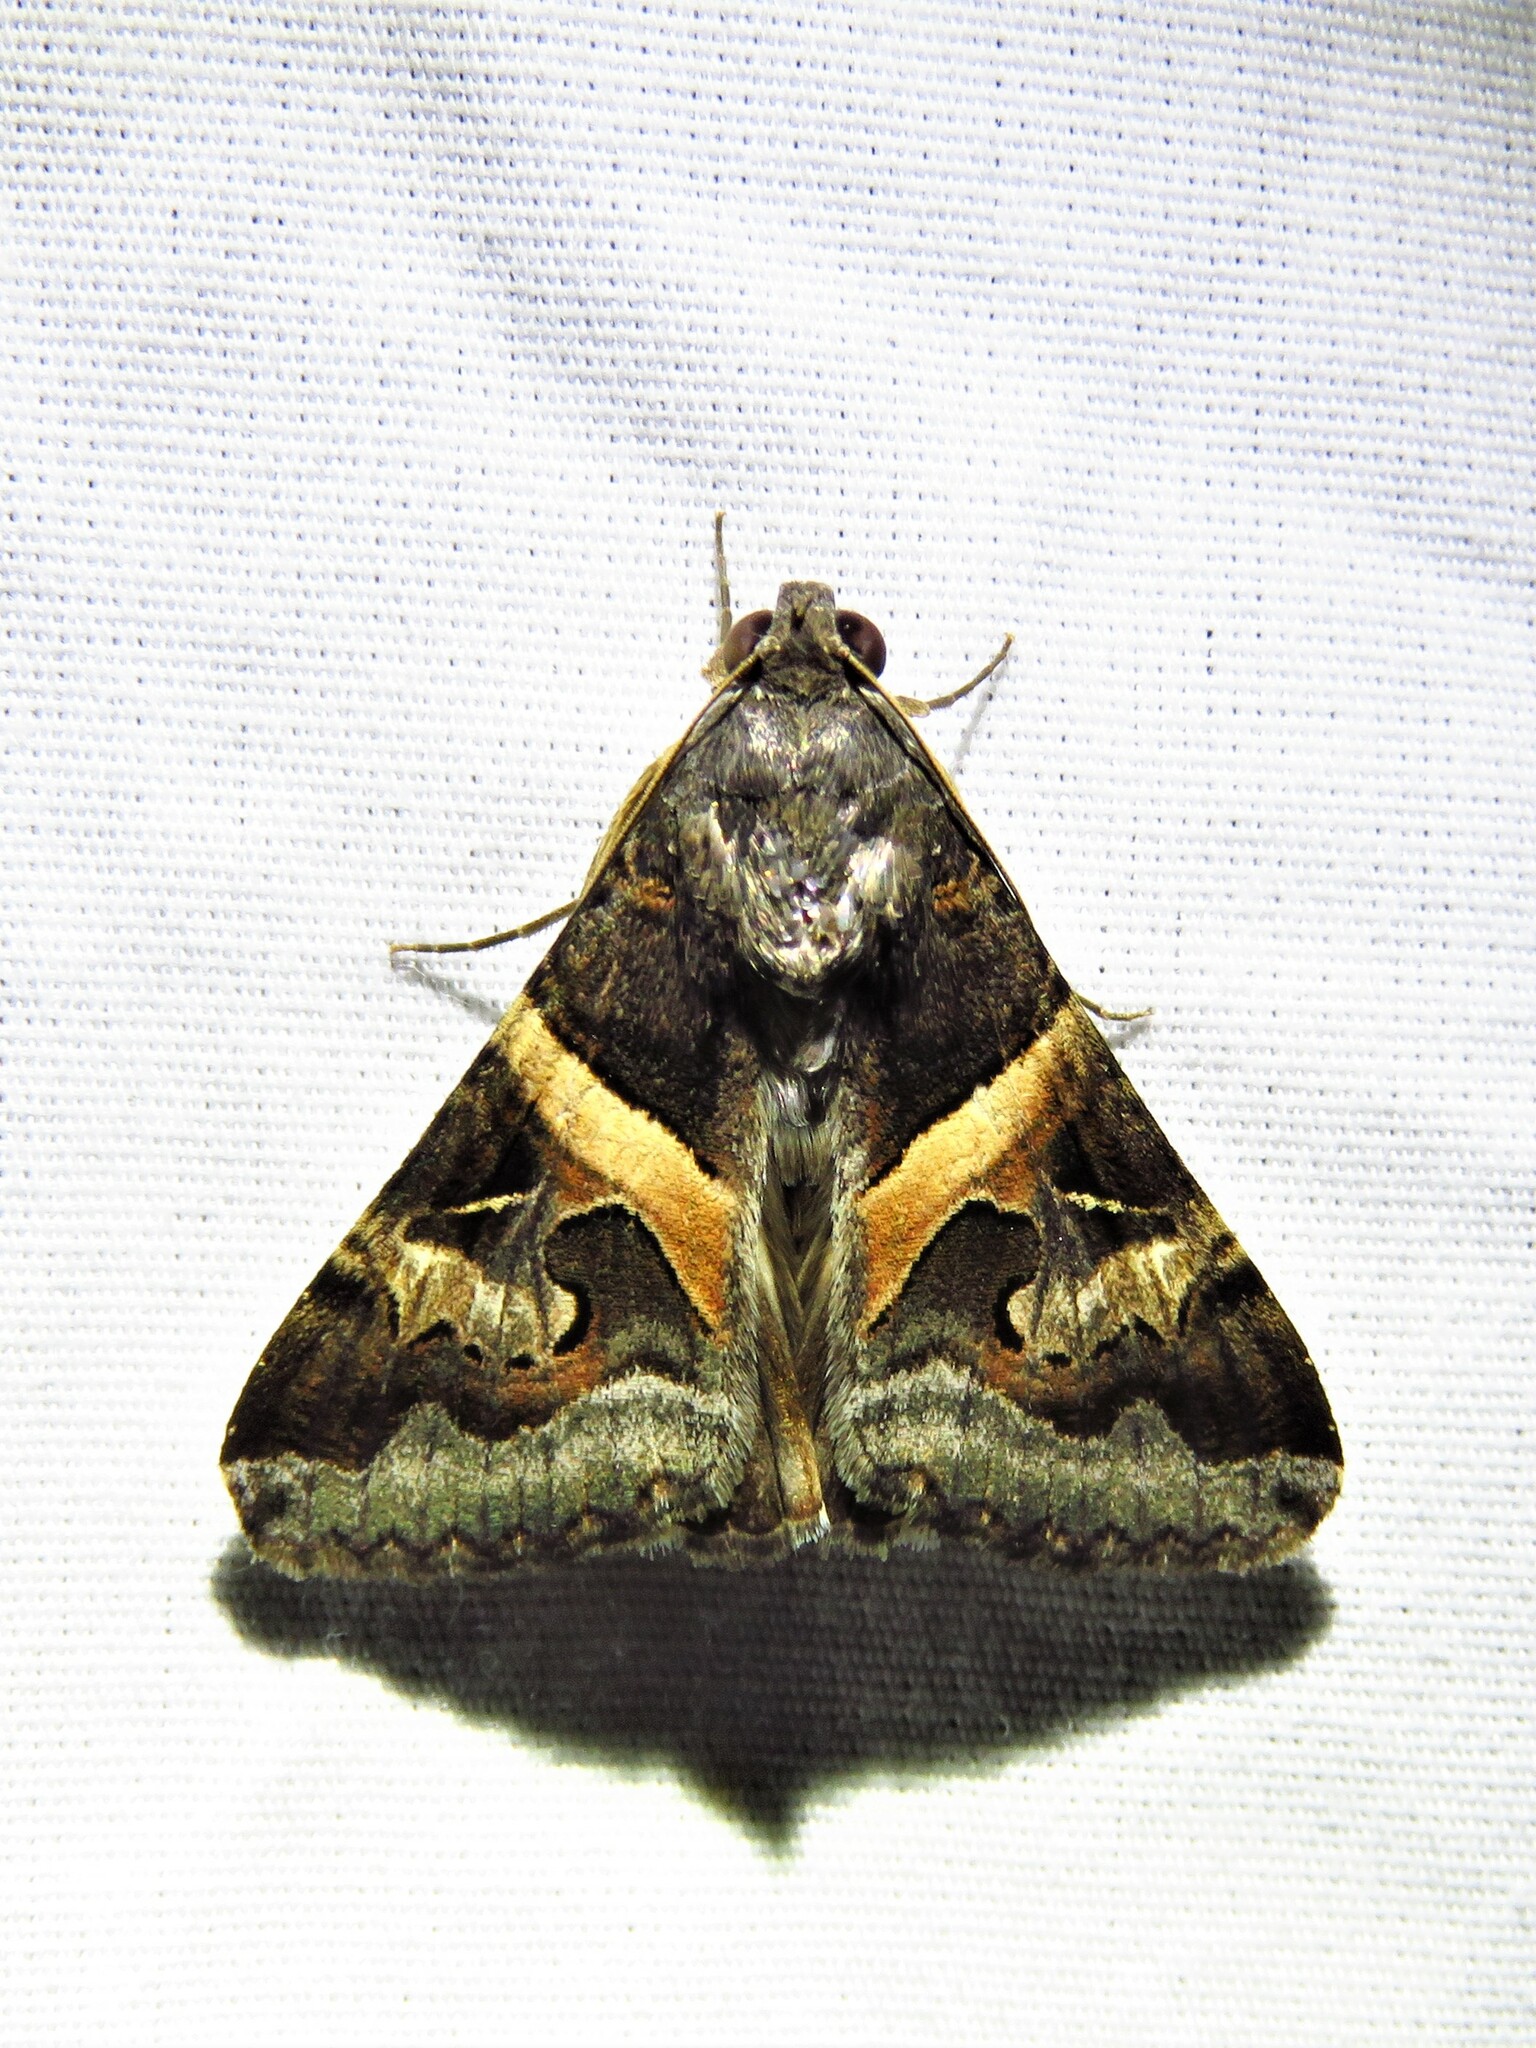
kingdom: Animalia
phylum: Arthropoda
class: Insecta
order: Lepidoptera
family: Erebidae
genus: Melipotis
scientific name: Melipotis indomita
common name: Moth
